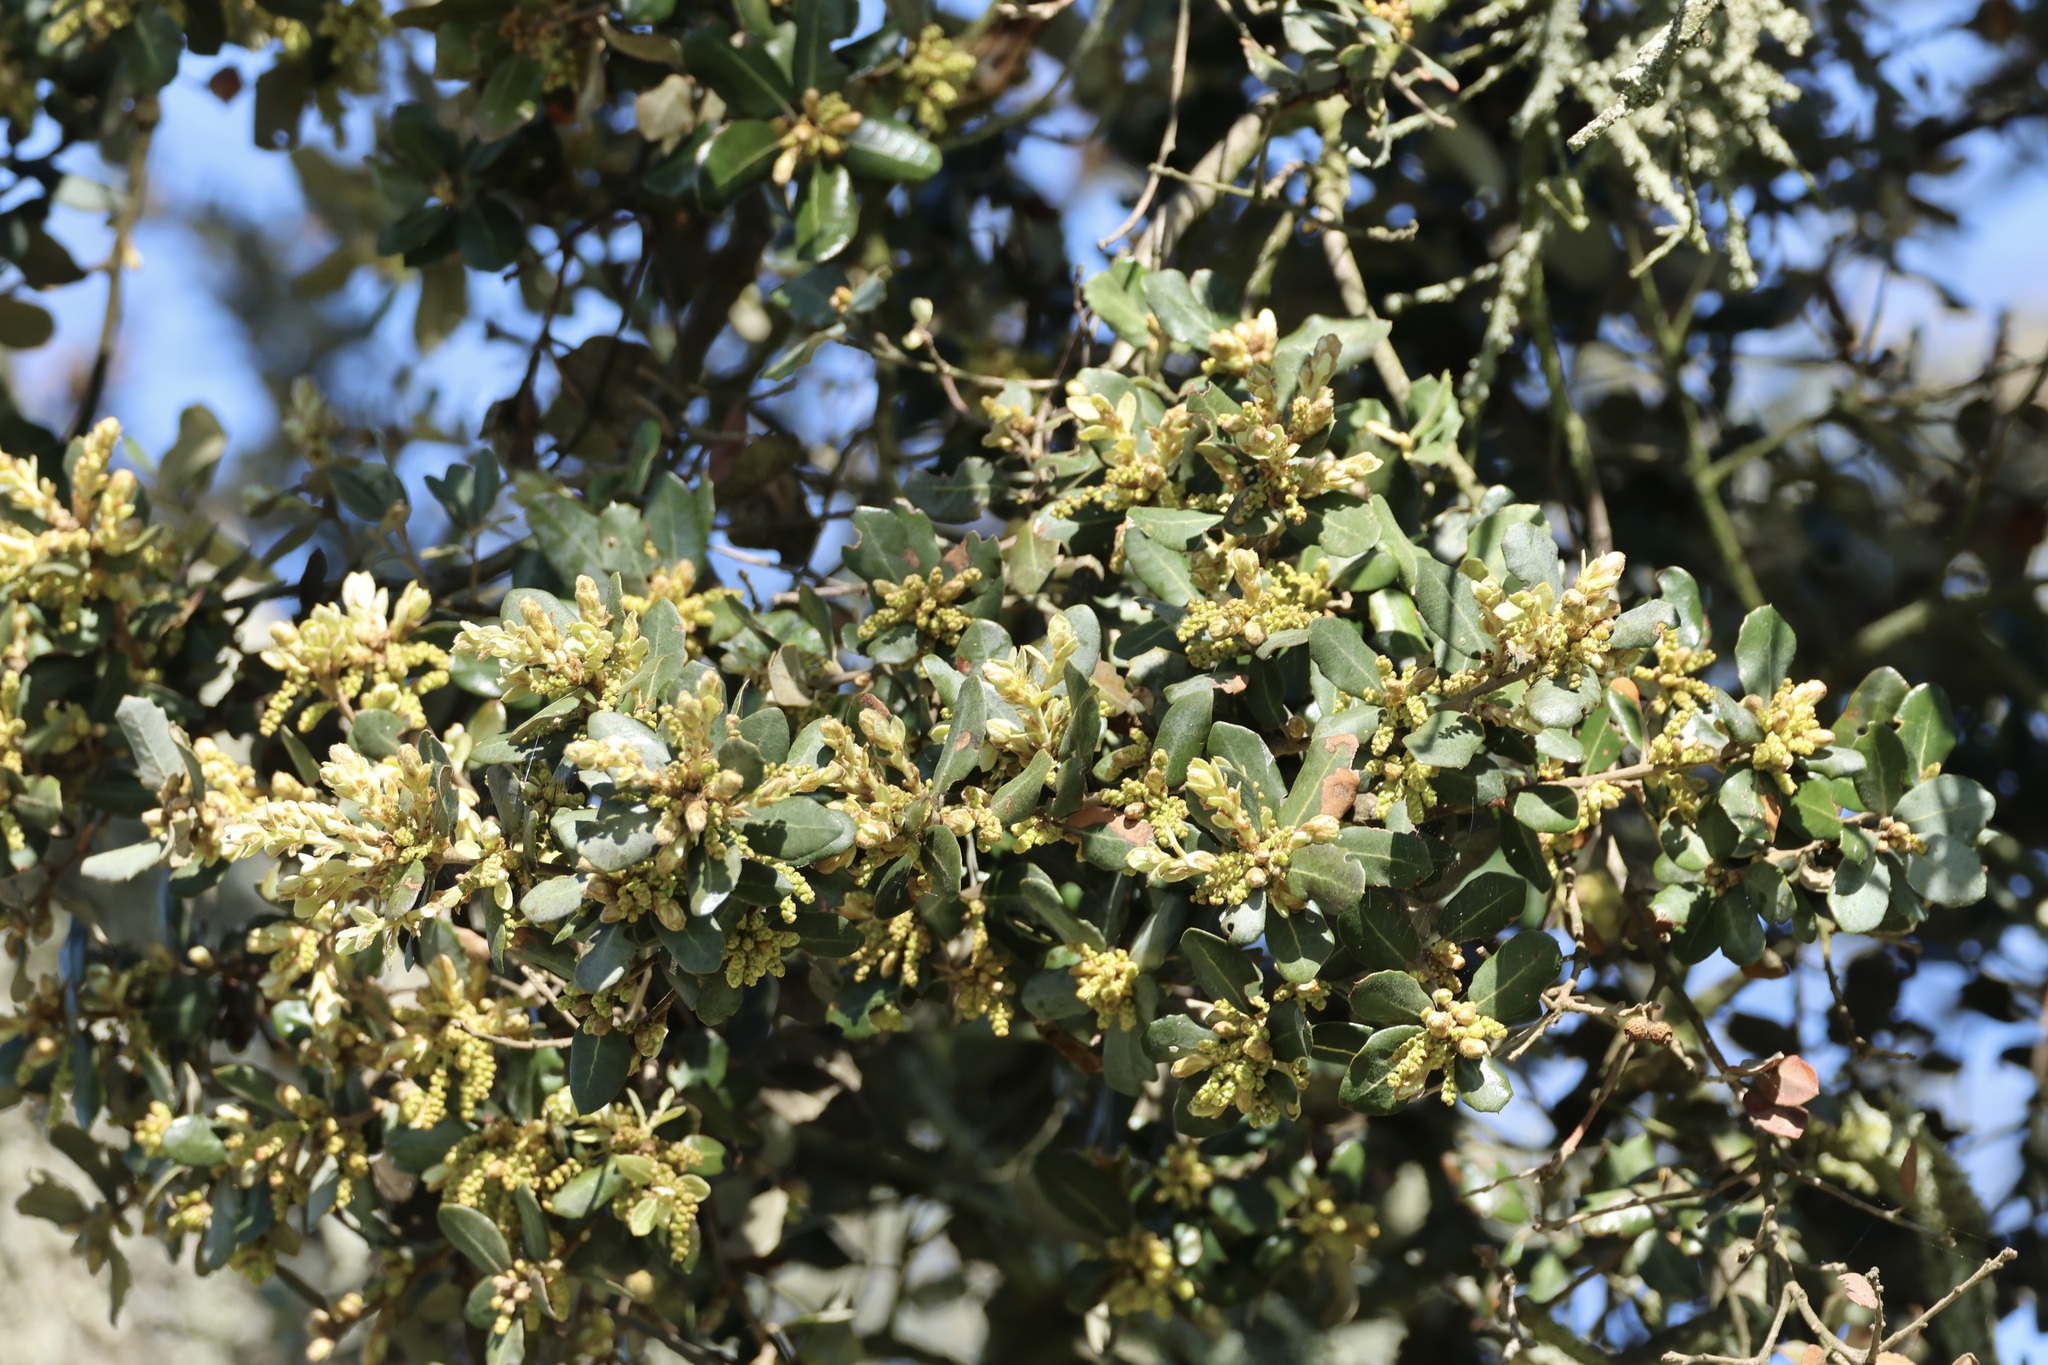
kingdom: Plantae
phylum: Tracheophyta
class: Magnoliopsida
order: Fagales
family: Fagaceae
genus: Quercus
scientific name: Quercus rotundifolia
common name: Holm oak
